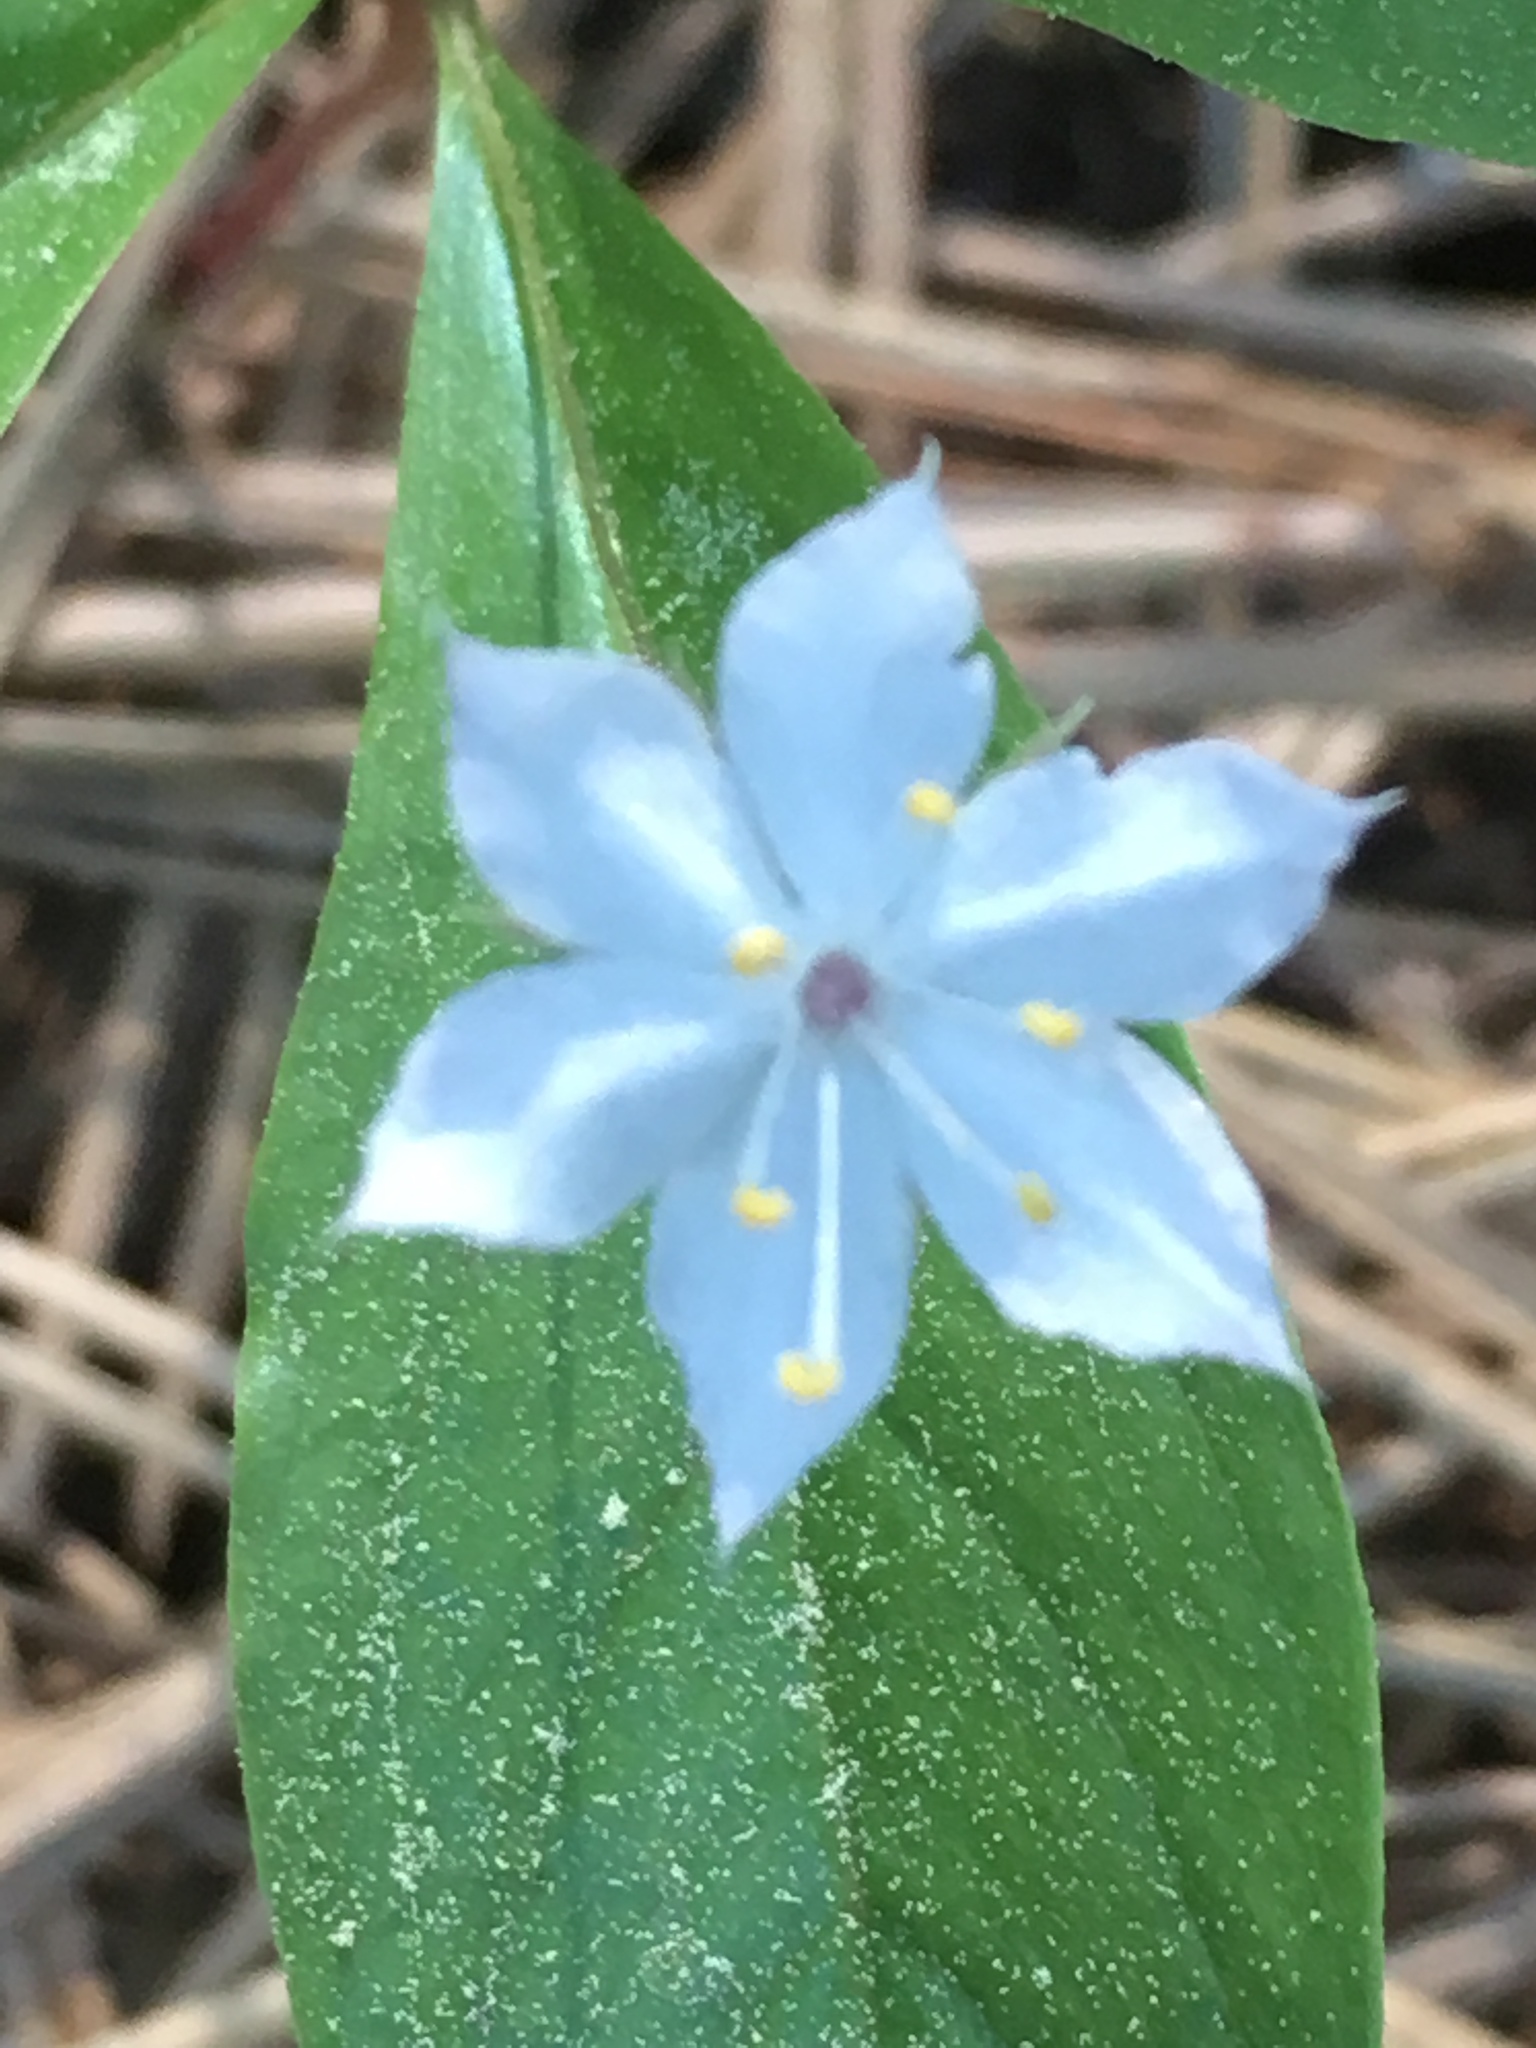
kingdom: Plantae
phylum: Tracheophyta
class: Magnoliopsida
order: Ericales
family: Primulaceae
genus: Lysimachia
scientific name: Lysimachia latifolia
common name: Pacific starflower
